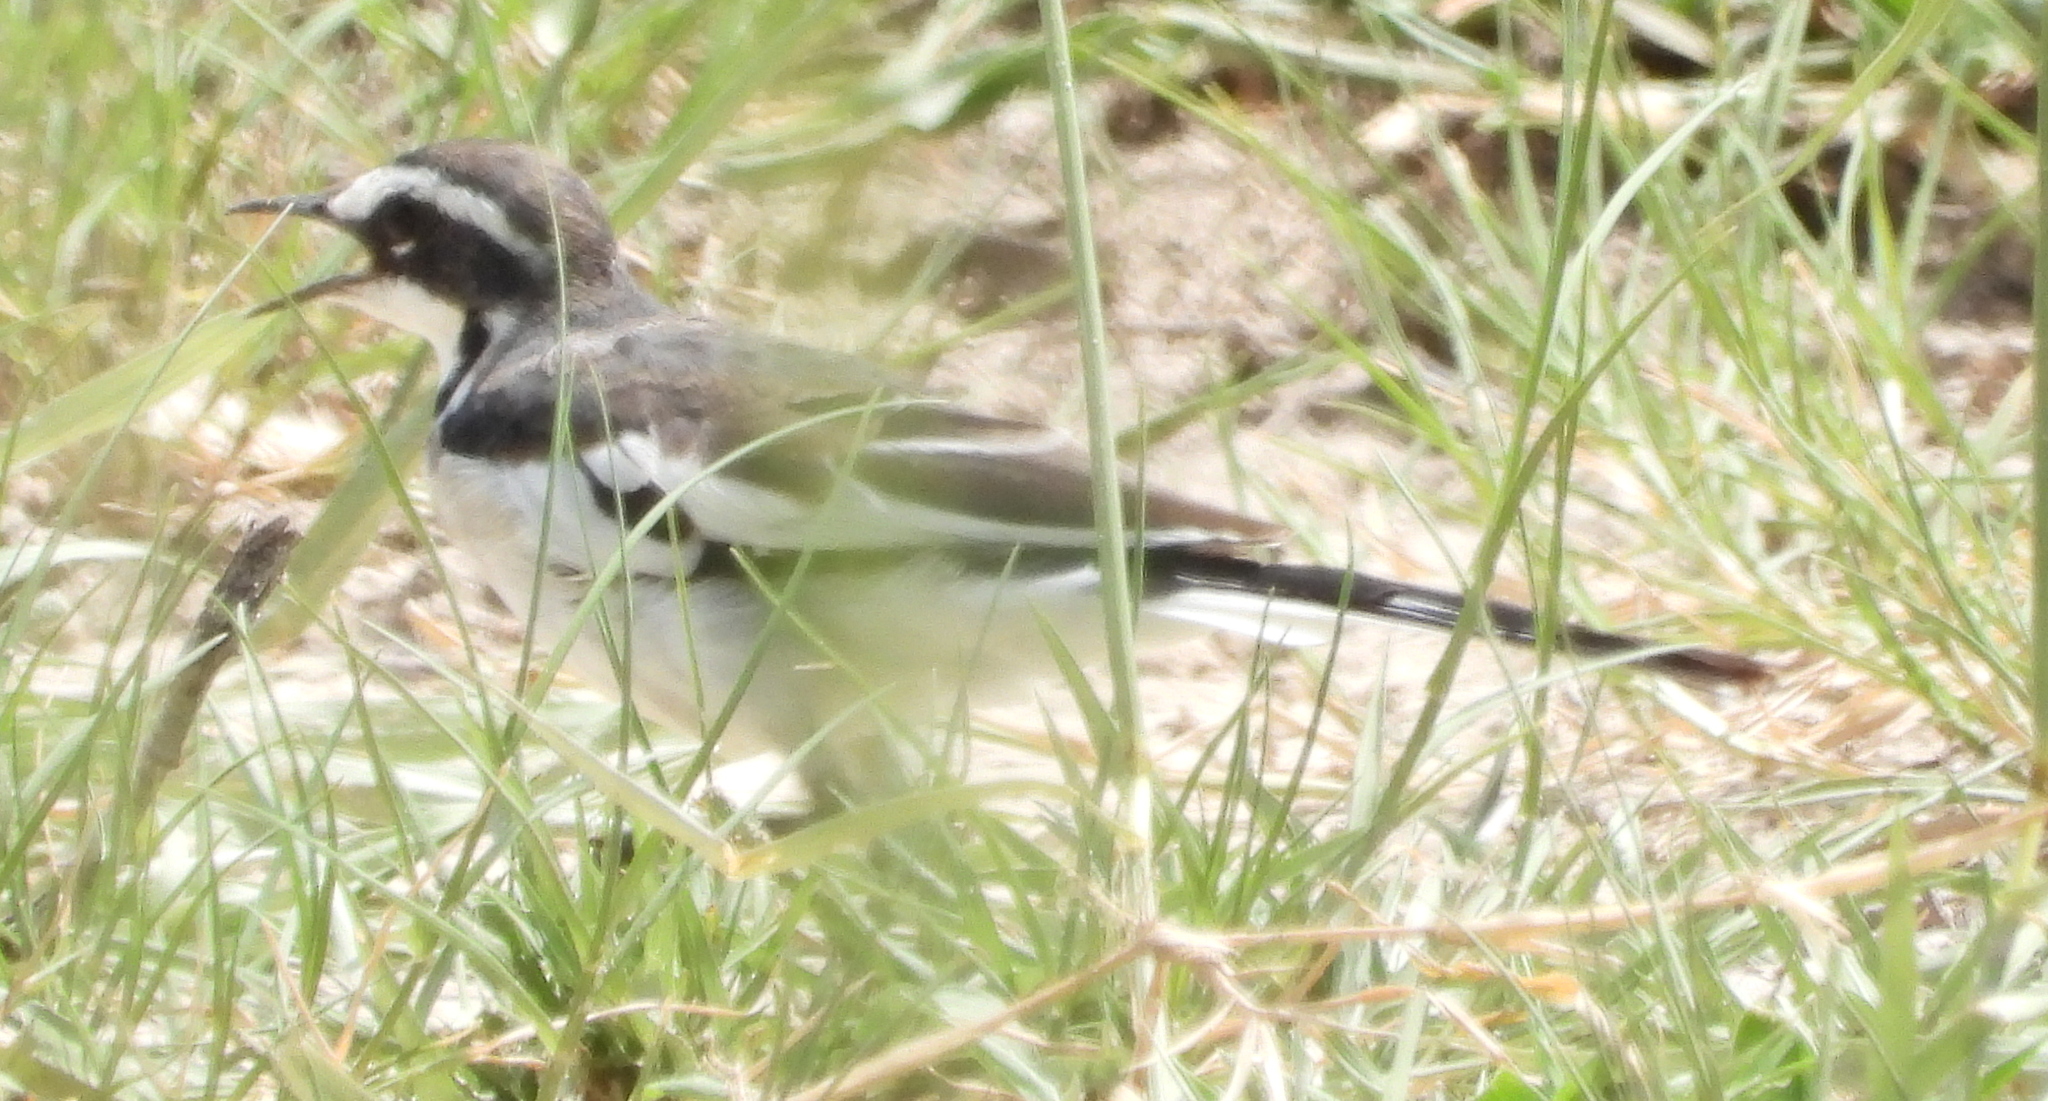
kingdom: Animalia
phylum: Chordata
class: Aves
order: Passeriformes
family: Motacillidae
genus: Motacilla
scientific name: Motacilla aguimp
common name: African pied wagtail
